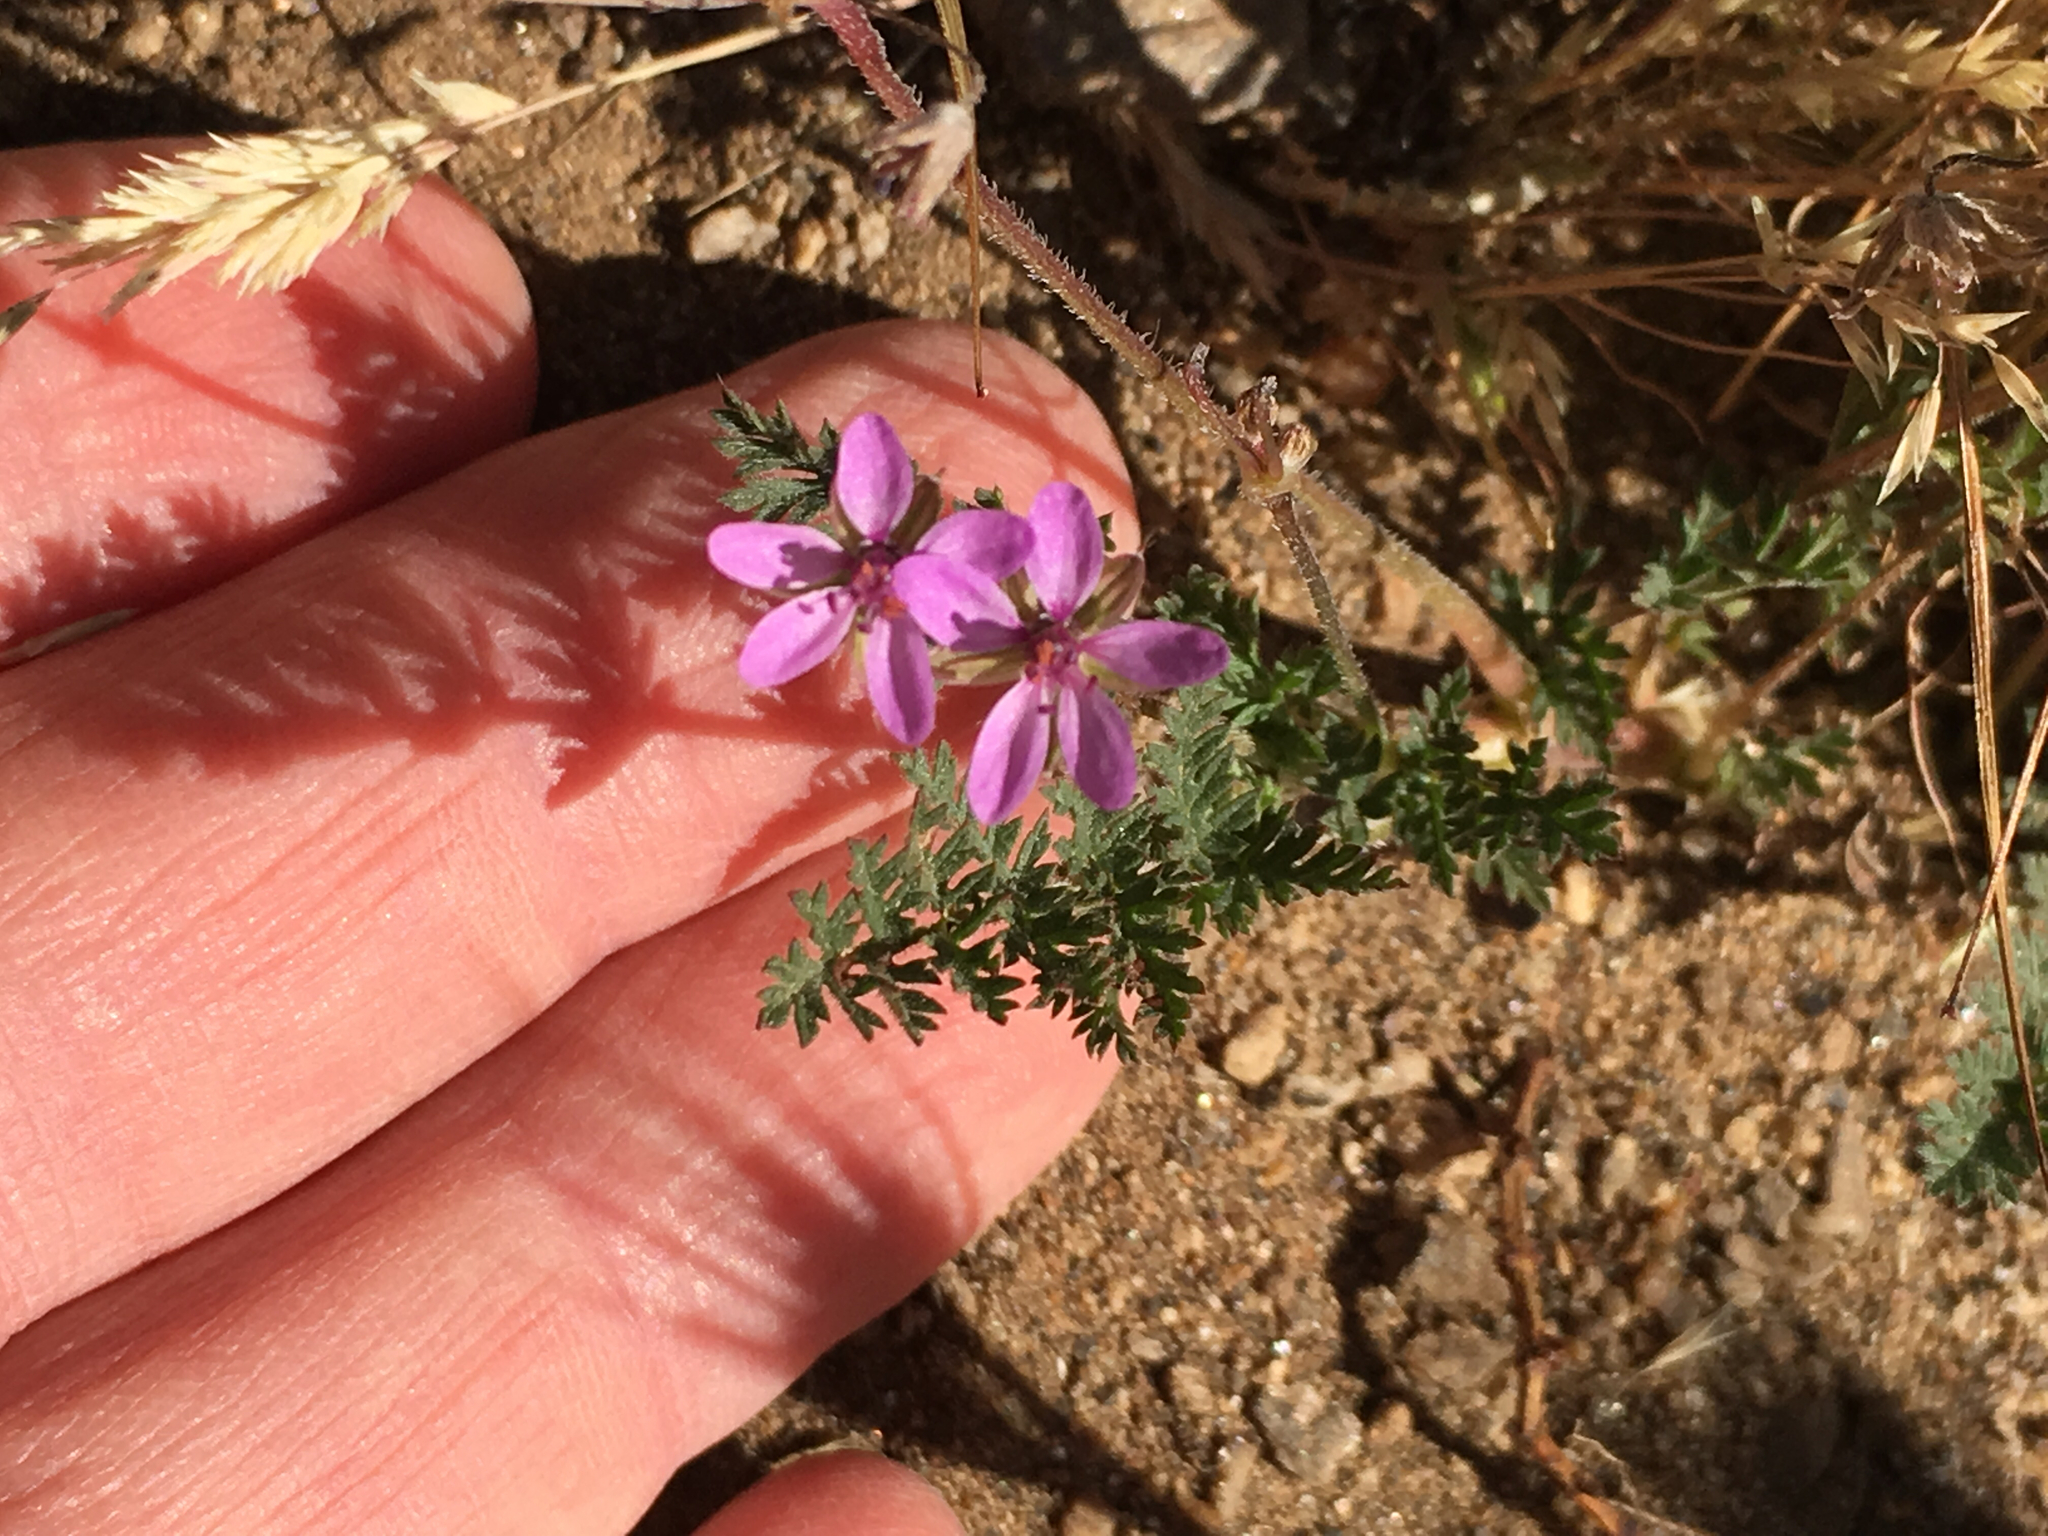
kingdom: Plantae
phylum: Tracheophyta
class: Magnoliopsida
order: Geraniales
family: Geraniaceae
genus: Erodium
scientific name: Erodium cicutarium
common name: Common stork's-bill
